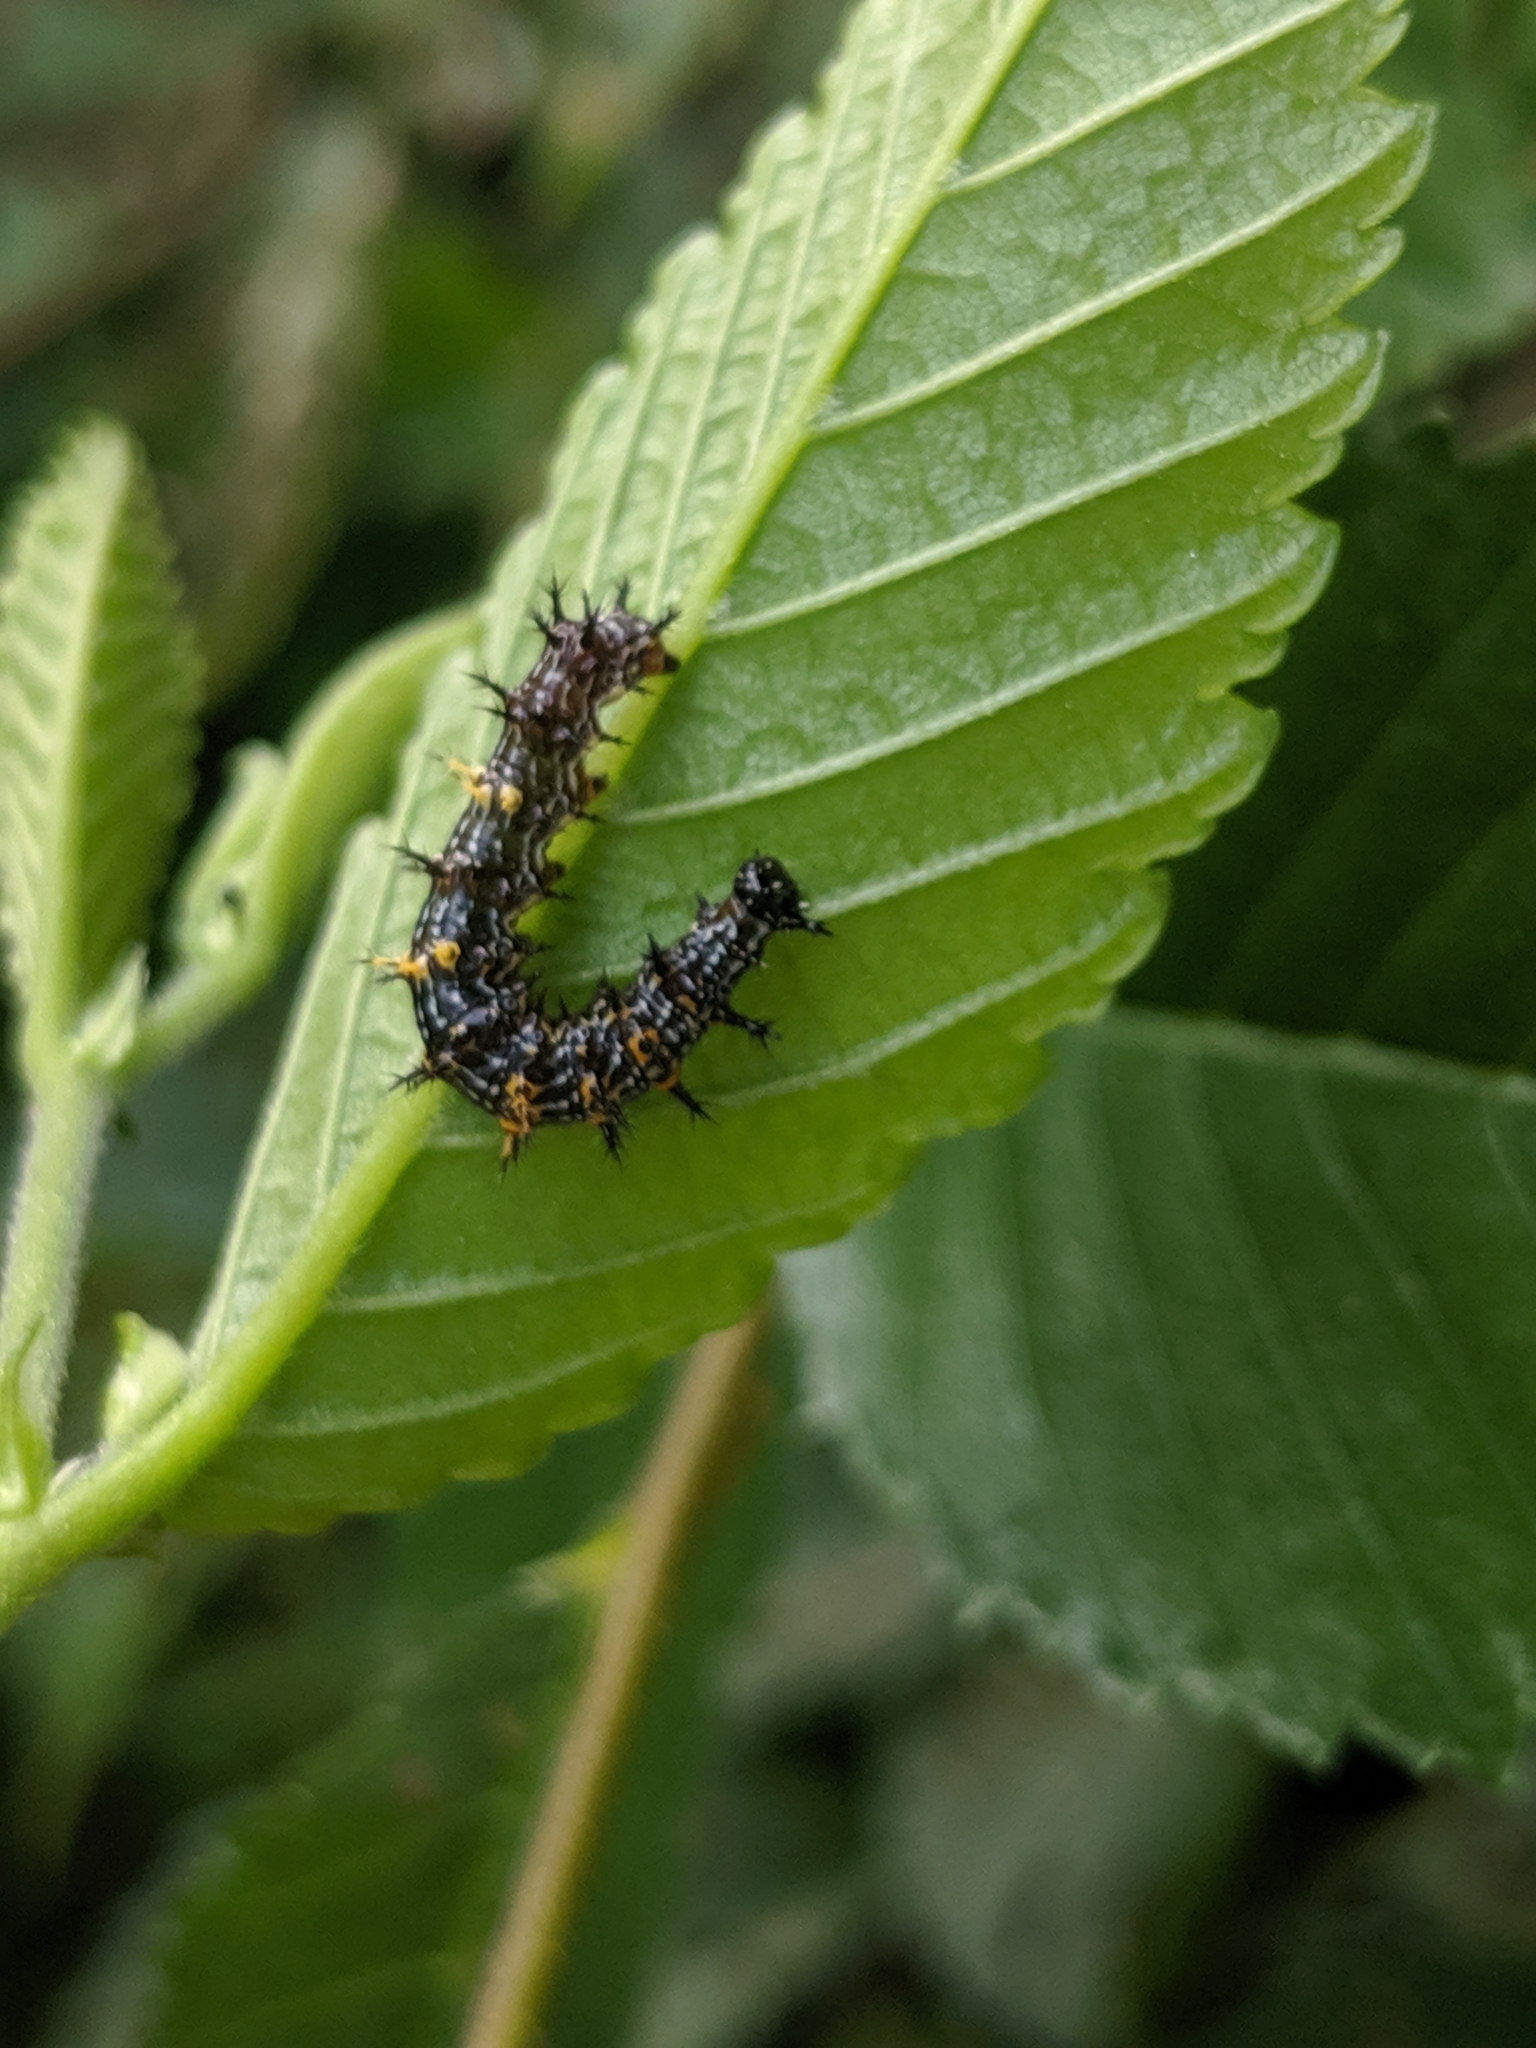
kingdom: Animalia
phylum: Arthropoda
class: Insecta
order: Lepidoptera
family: Nymphalidae
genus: Polygonia
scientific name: Polygonia interrogationis
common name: Question mark
